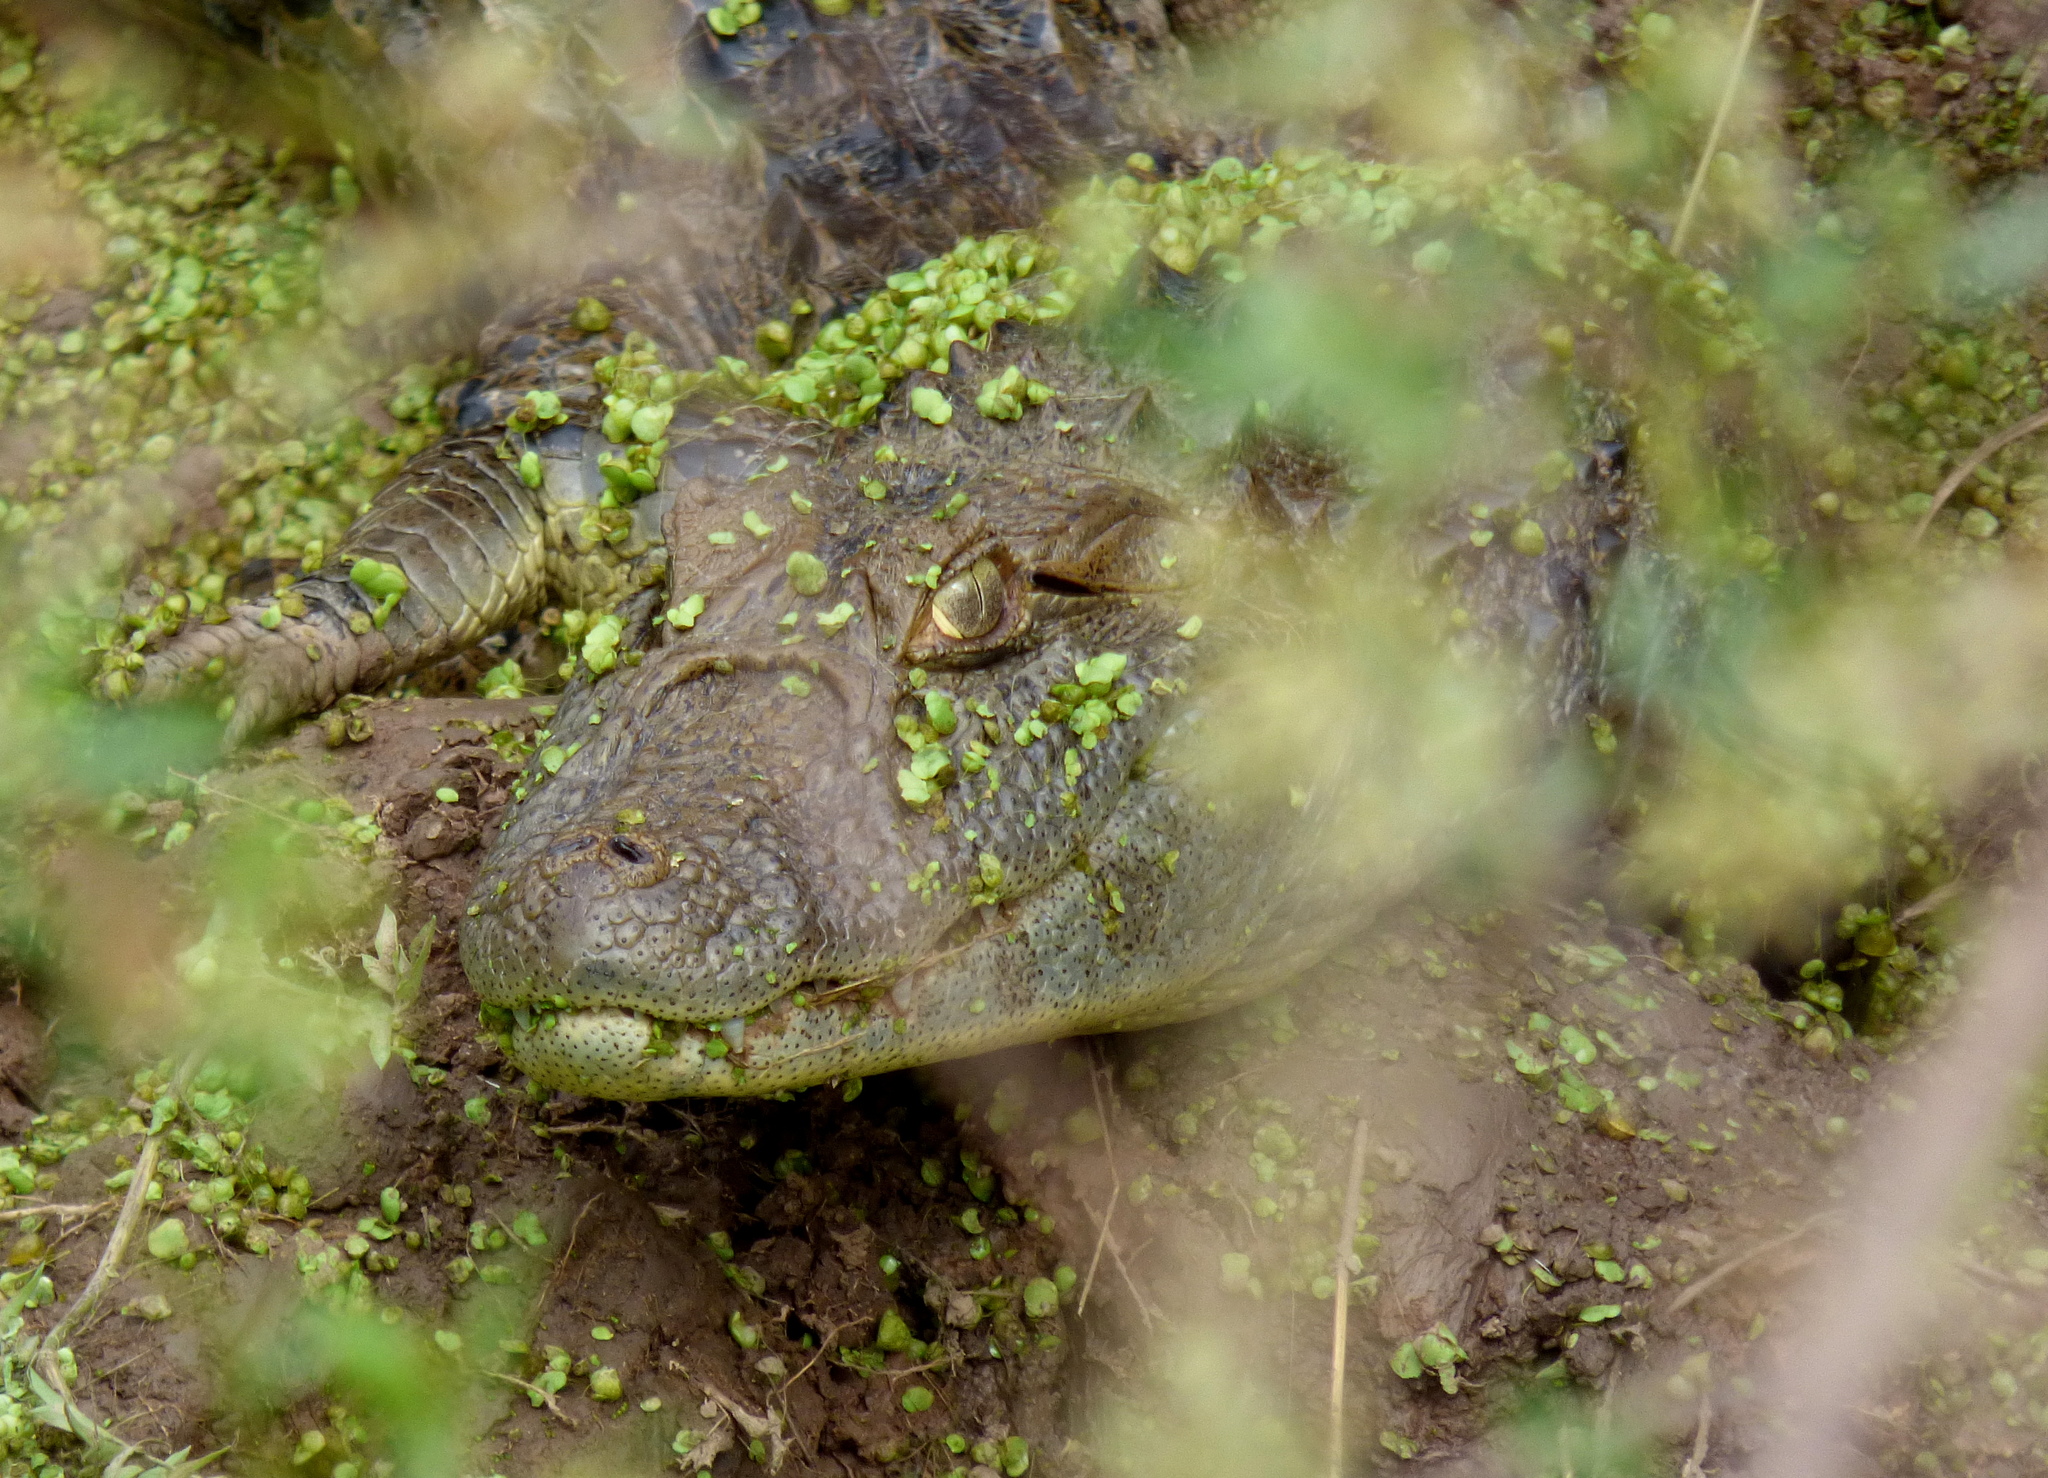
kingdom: Animalia
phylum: Chordata
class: Crocodylia
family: Alligatoridae
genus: Caiman
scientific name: Caiman latirostris
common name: Broad-snouted caiman
